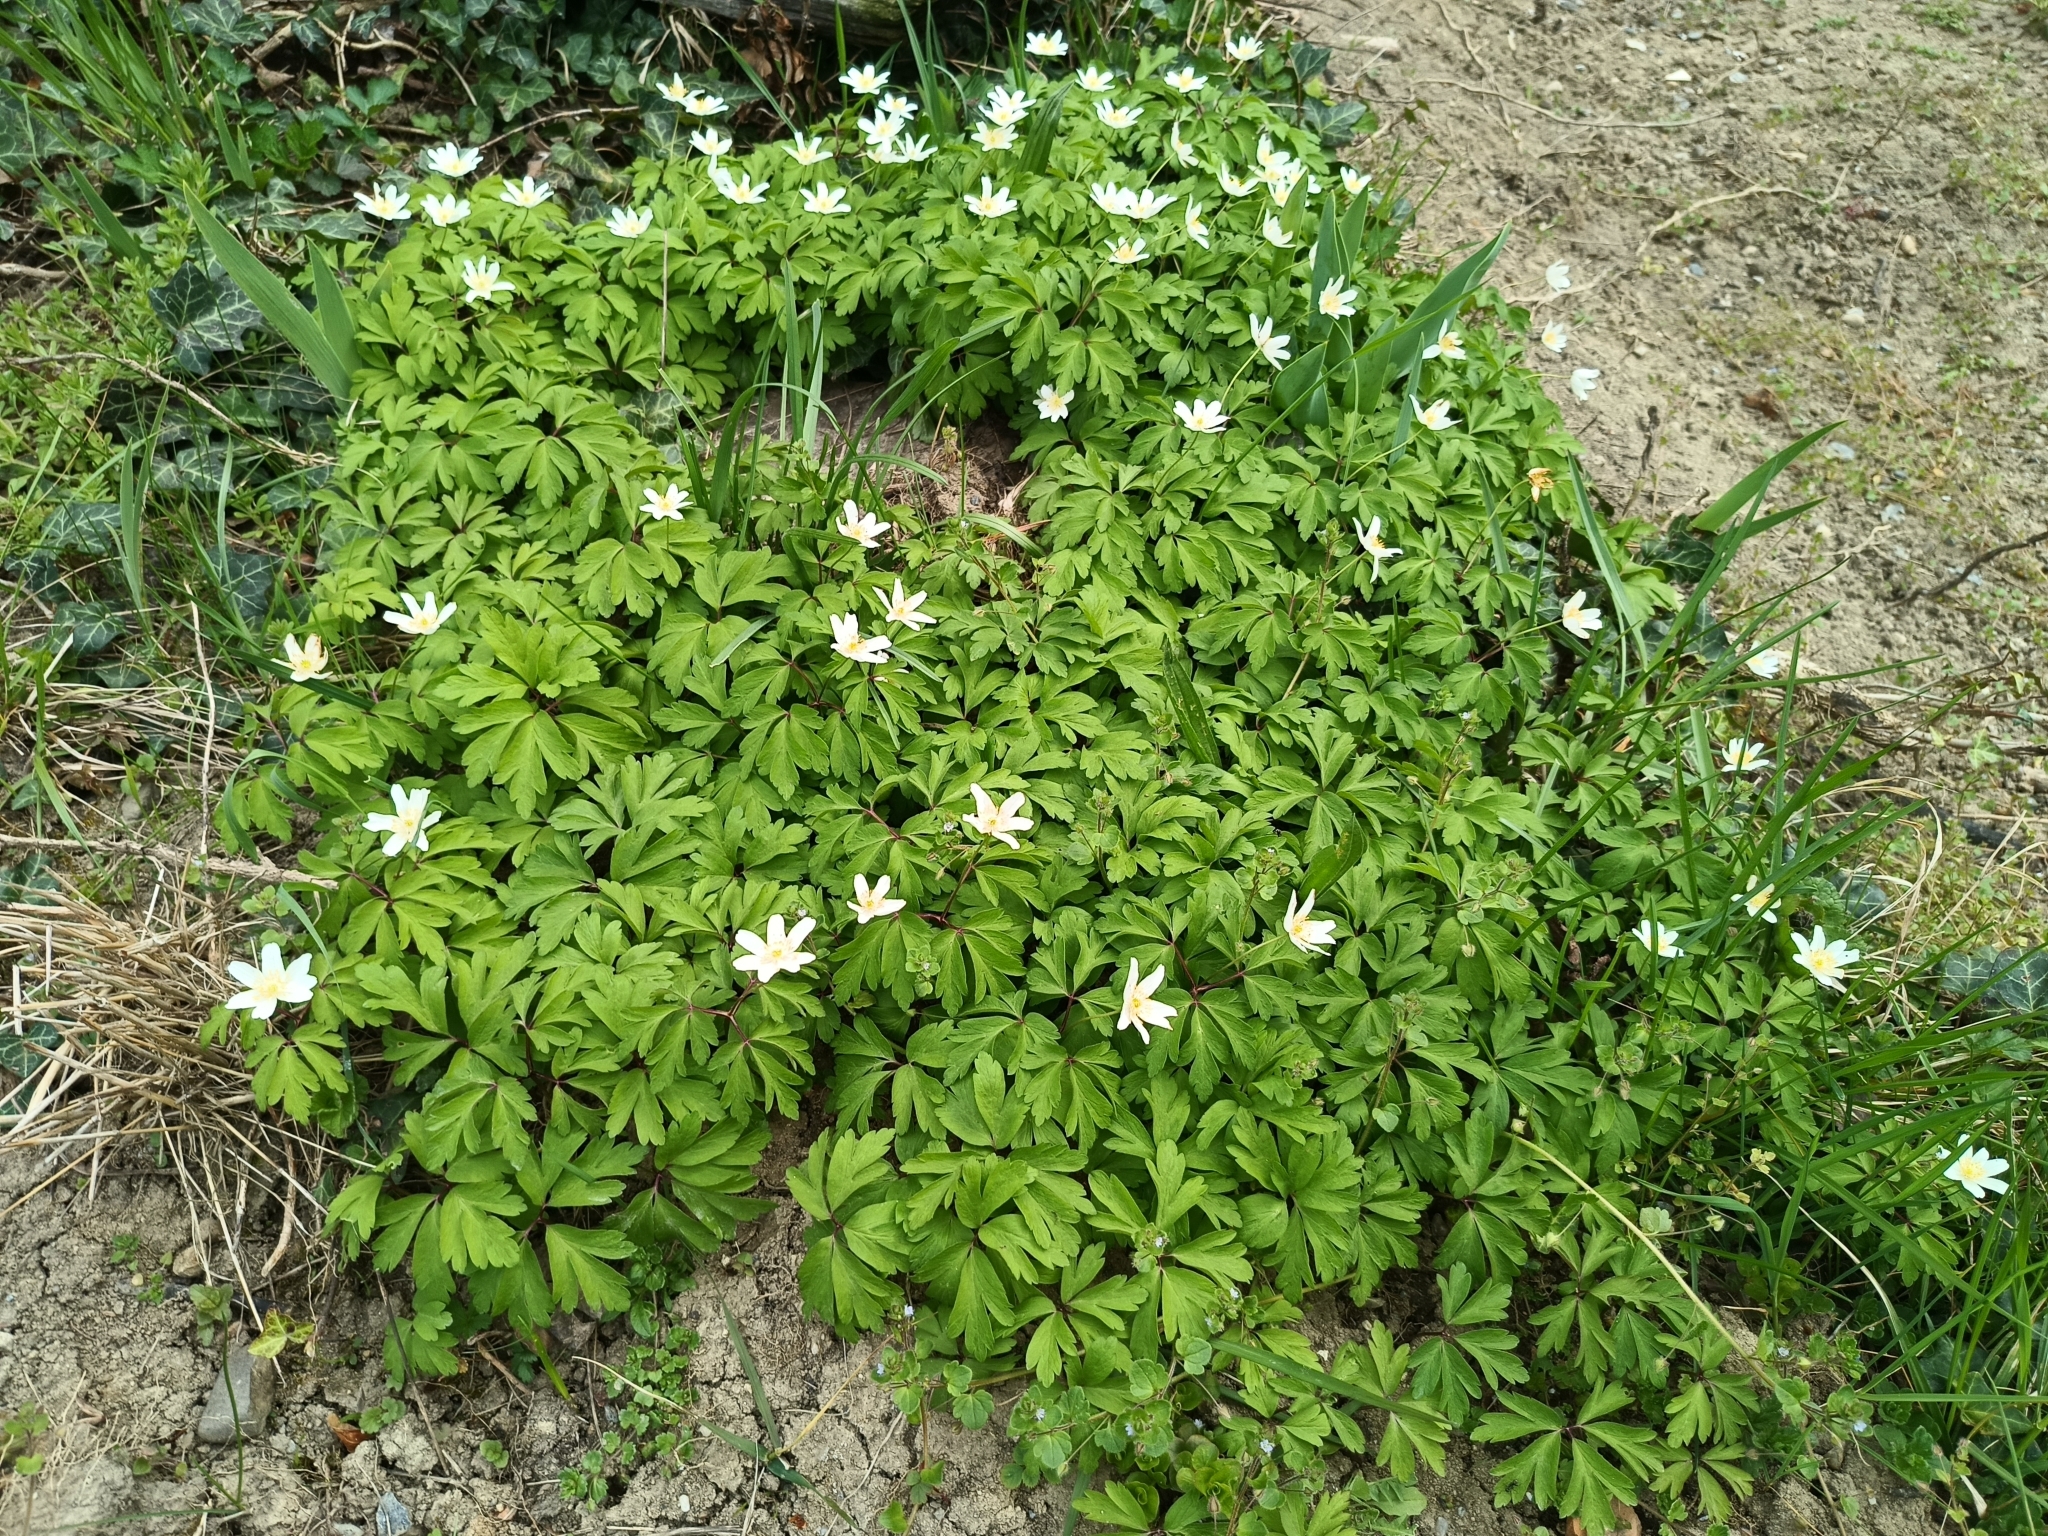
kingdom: Plantae
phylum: Tracheophyta
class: Magnoliopsida
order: Ranunculales
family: Ranunculaceae
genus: Anemone
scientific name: Anemone nemorosa
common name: Wood anemone
